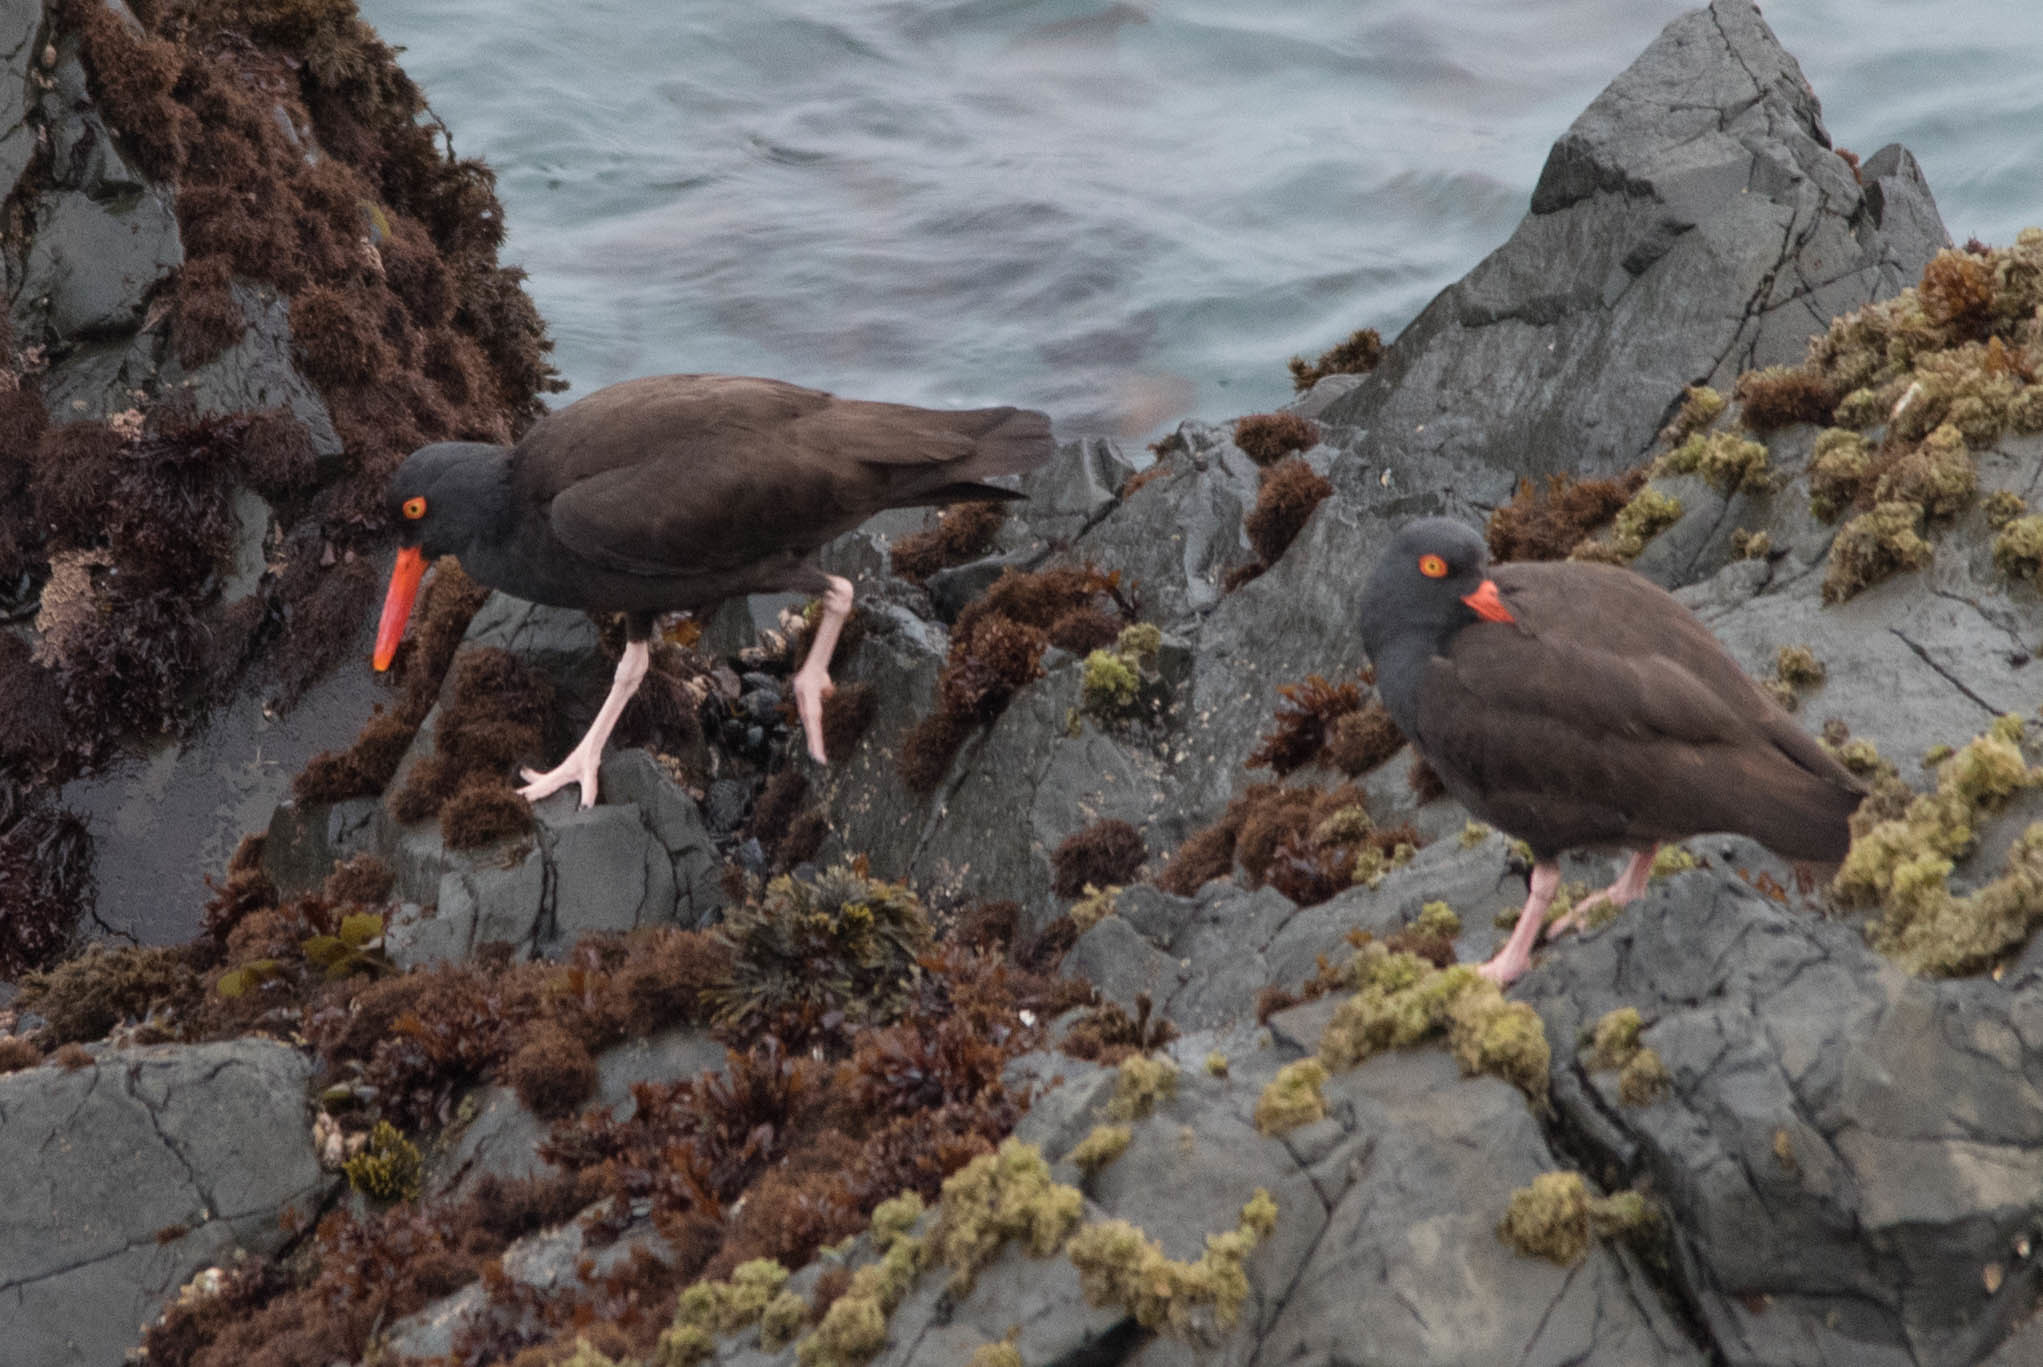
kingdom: Animalia
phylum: Chordata
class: Aves
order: Charadriiformes
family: Haematopodidae
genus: Haematopus
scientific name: Haematopus bachmani
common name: Black oystercatcher
